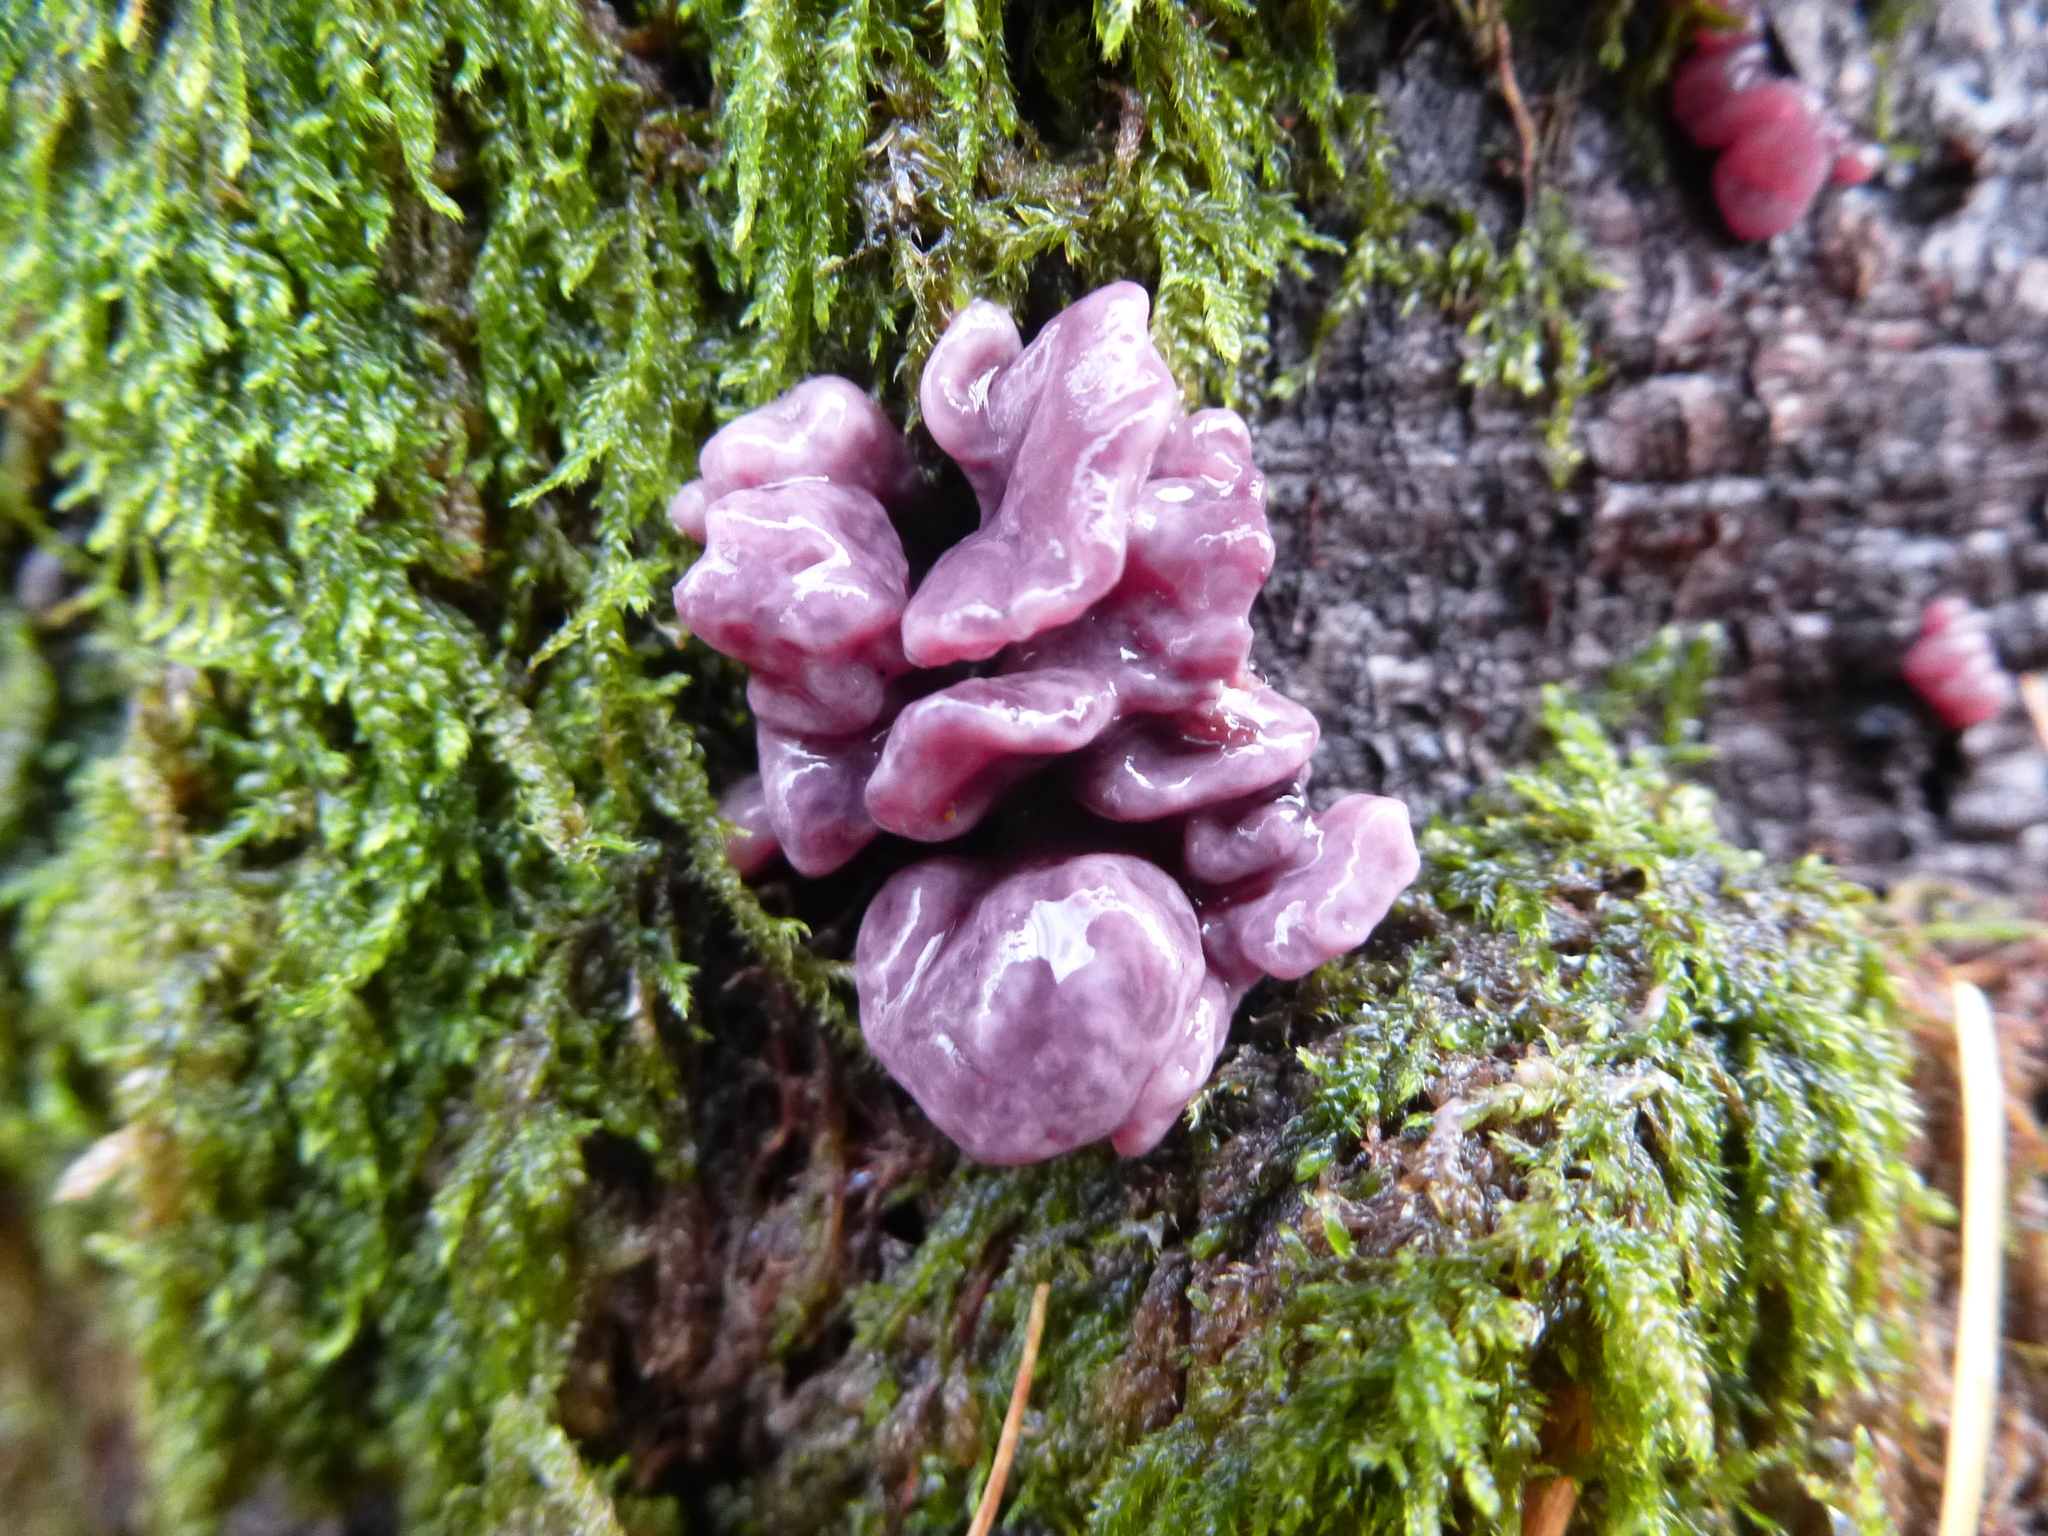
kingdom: Fungi
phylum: Ascomycota
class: Leotiomycetes
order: Helotiales
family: Gelatinodiscaceae
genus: Ascocoryne
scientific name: Ascocoryne sarcoides
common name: Purple jellydisc
